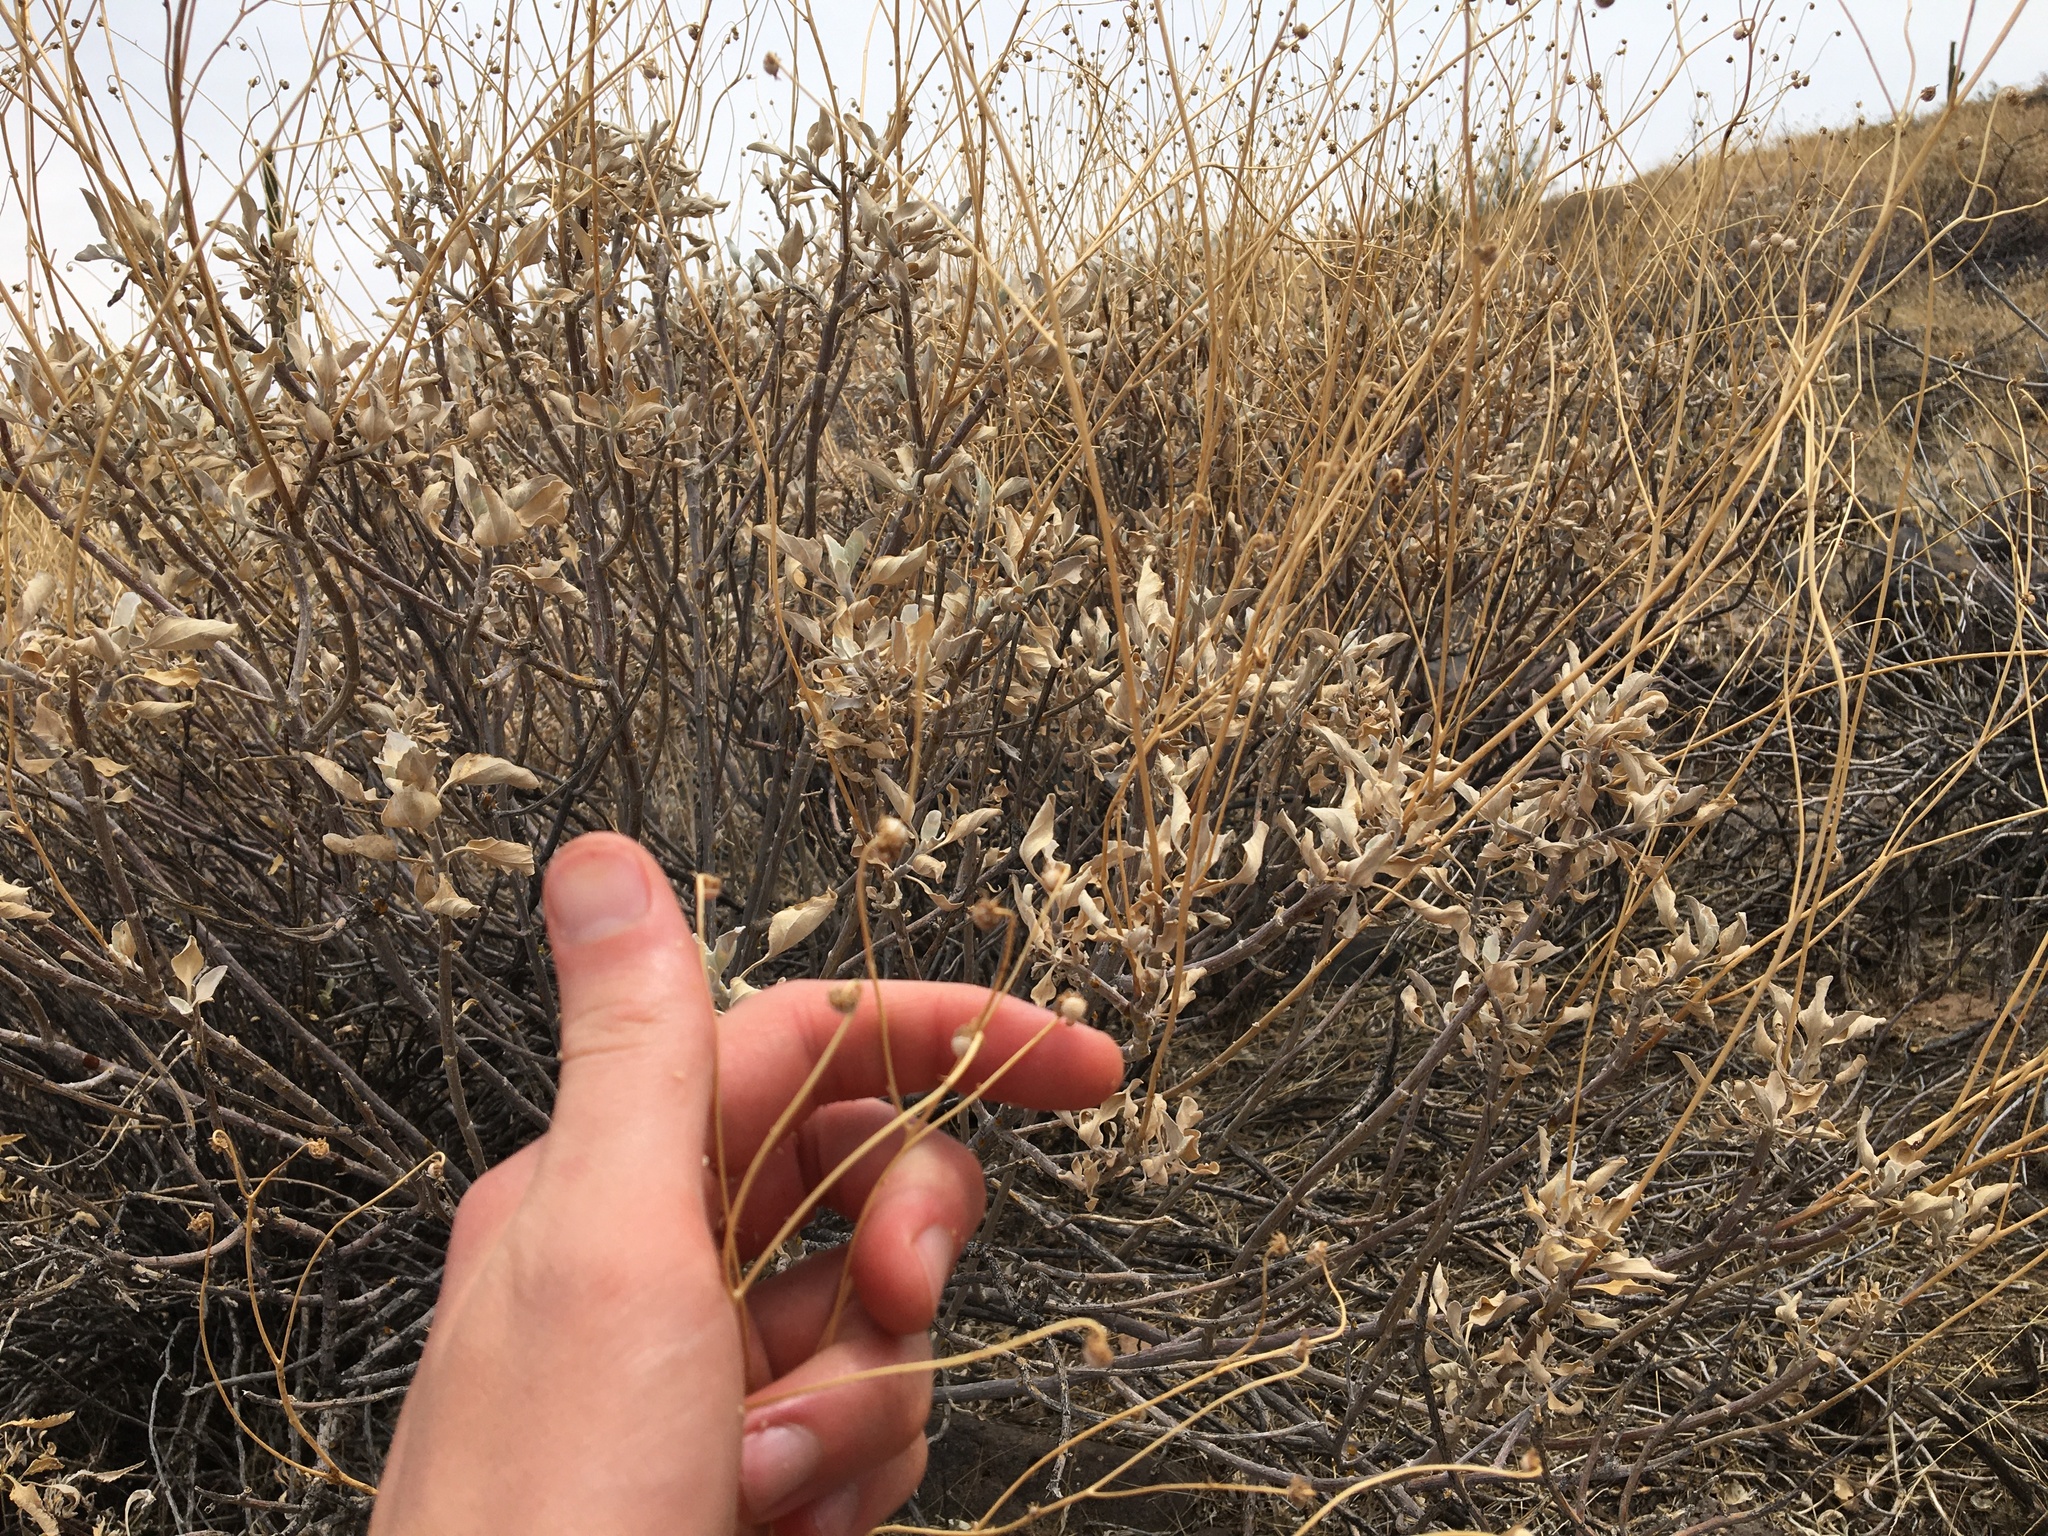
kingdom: Plantae
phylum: Tracheophyta
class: Magnoliopsida
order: Asterales
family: Asteraceae
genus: Encelia
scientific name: Encelia farinosa
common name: Brittlebush
